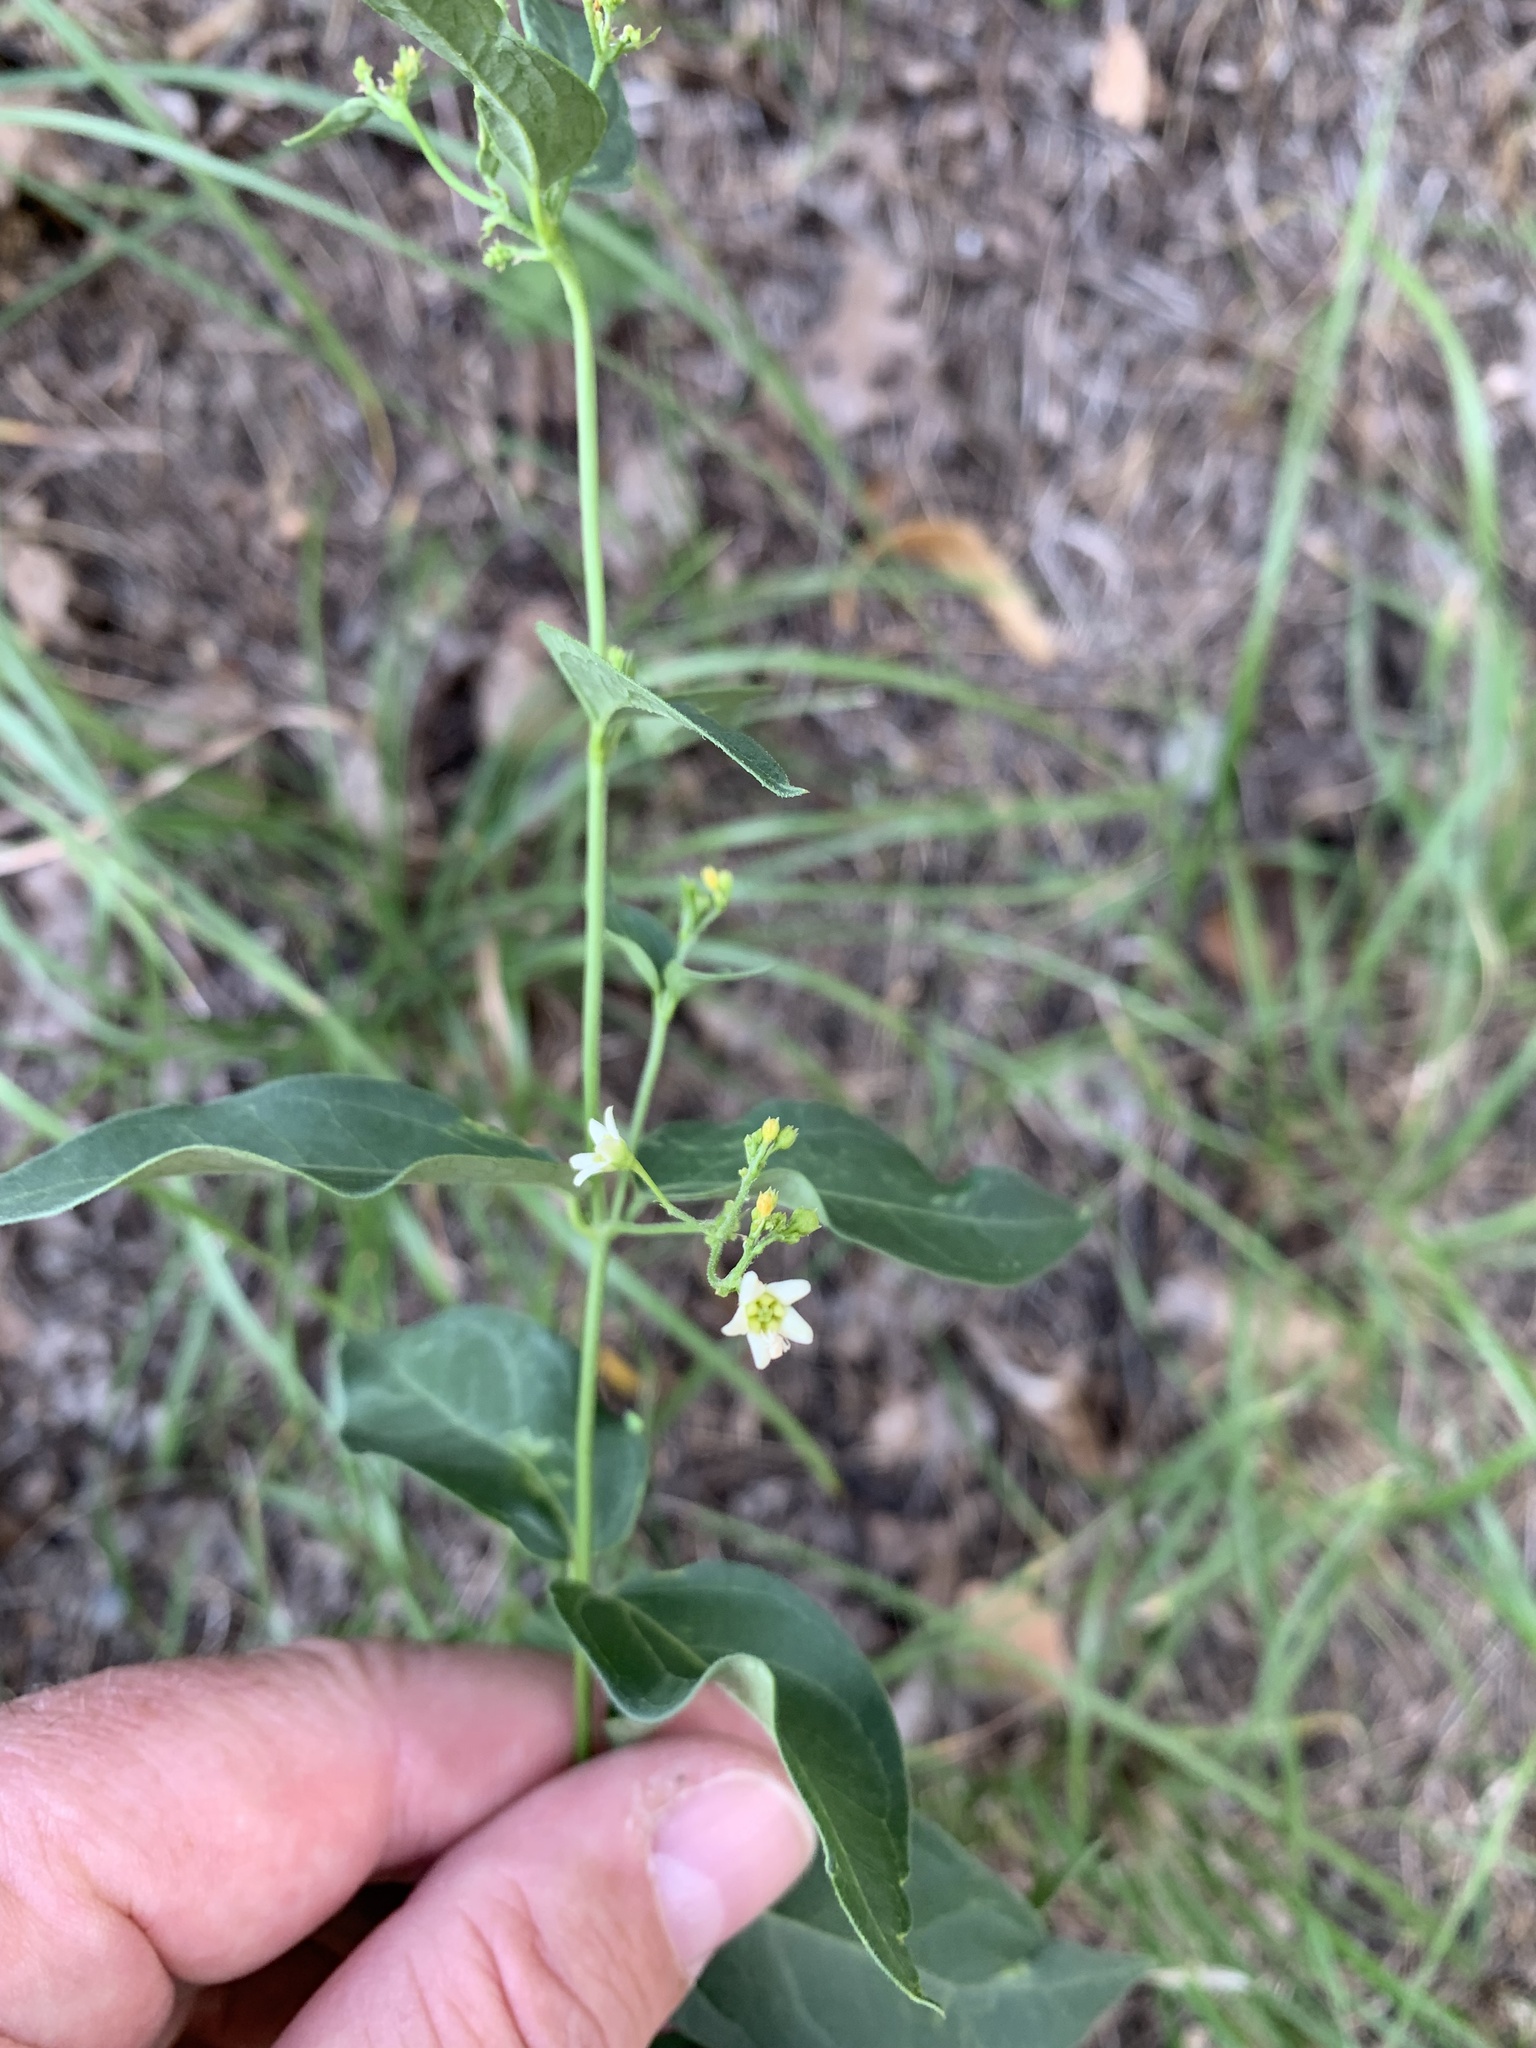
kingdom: Plantae
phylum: Tracheophyta
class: Magnoliopsida
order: Gentianales
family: Apocynaceae
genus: Vincetoxicum
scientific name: Vincetoxicum hirundinaria
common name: White swallowwort
